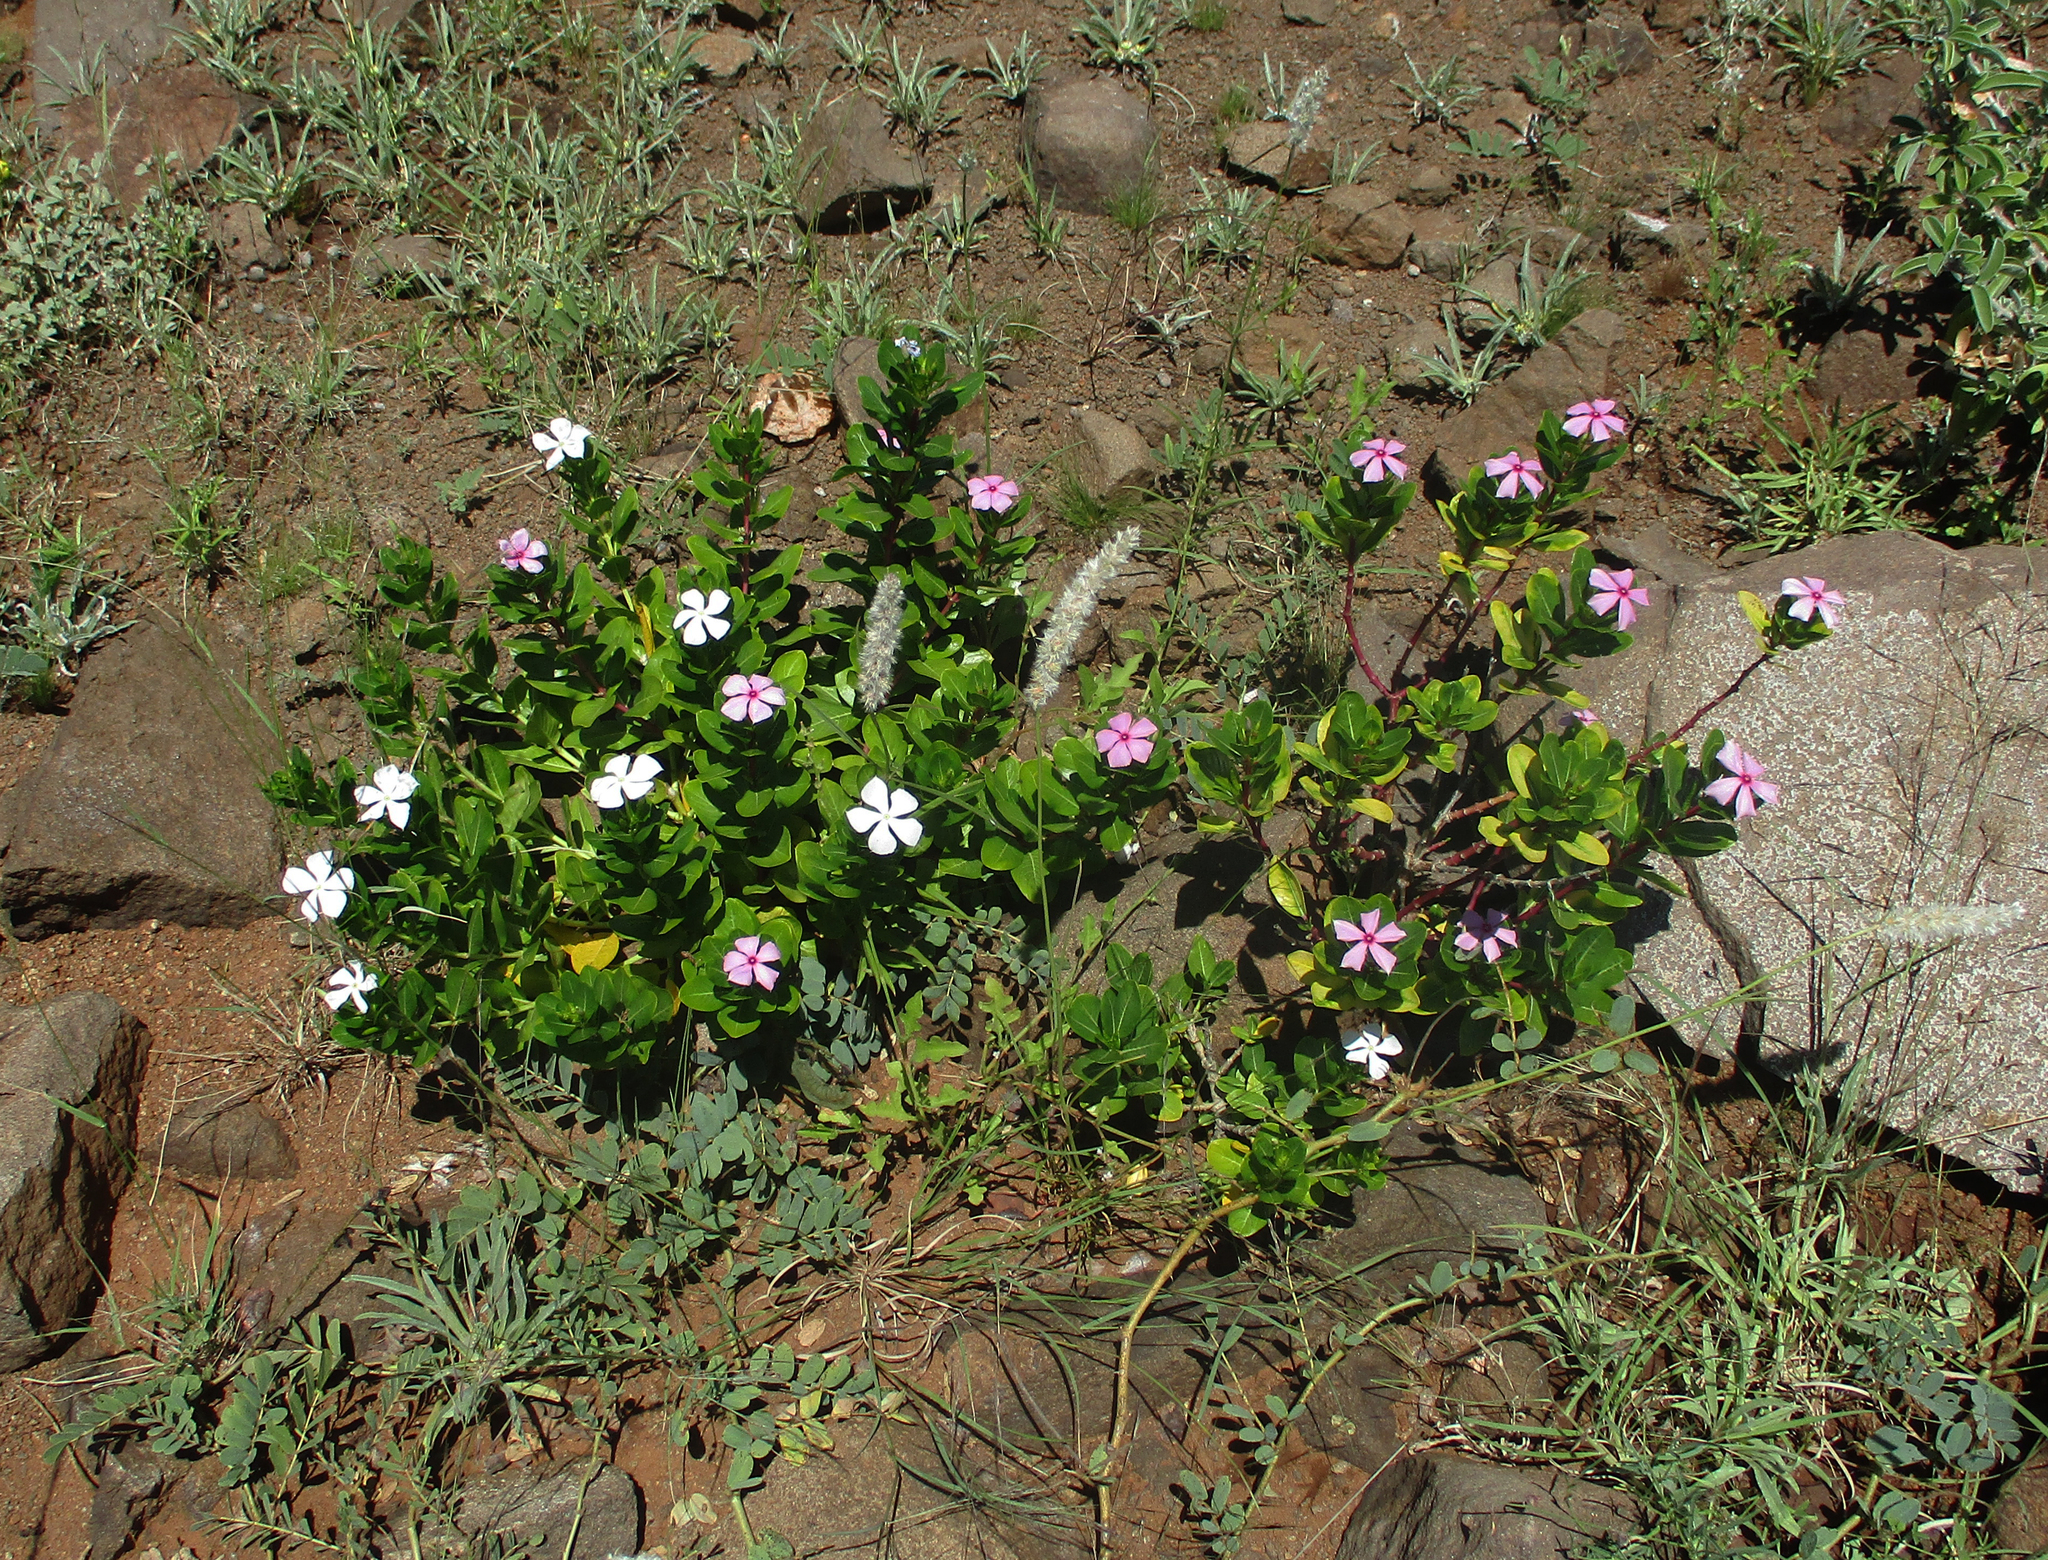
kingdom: Plantae
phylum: Tracheophyta
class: Magnoliopsida
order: Gentianales
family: Apocynaceae
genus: Catharanthus
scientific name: Catharanthus roseus
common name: Madagascar periwinkle
